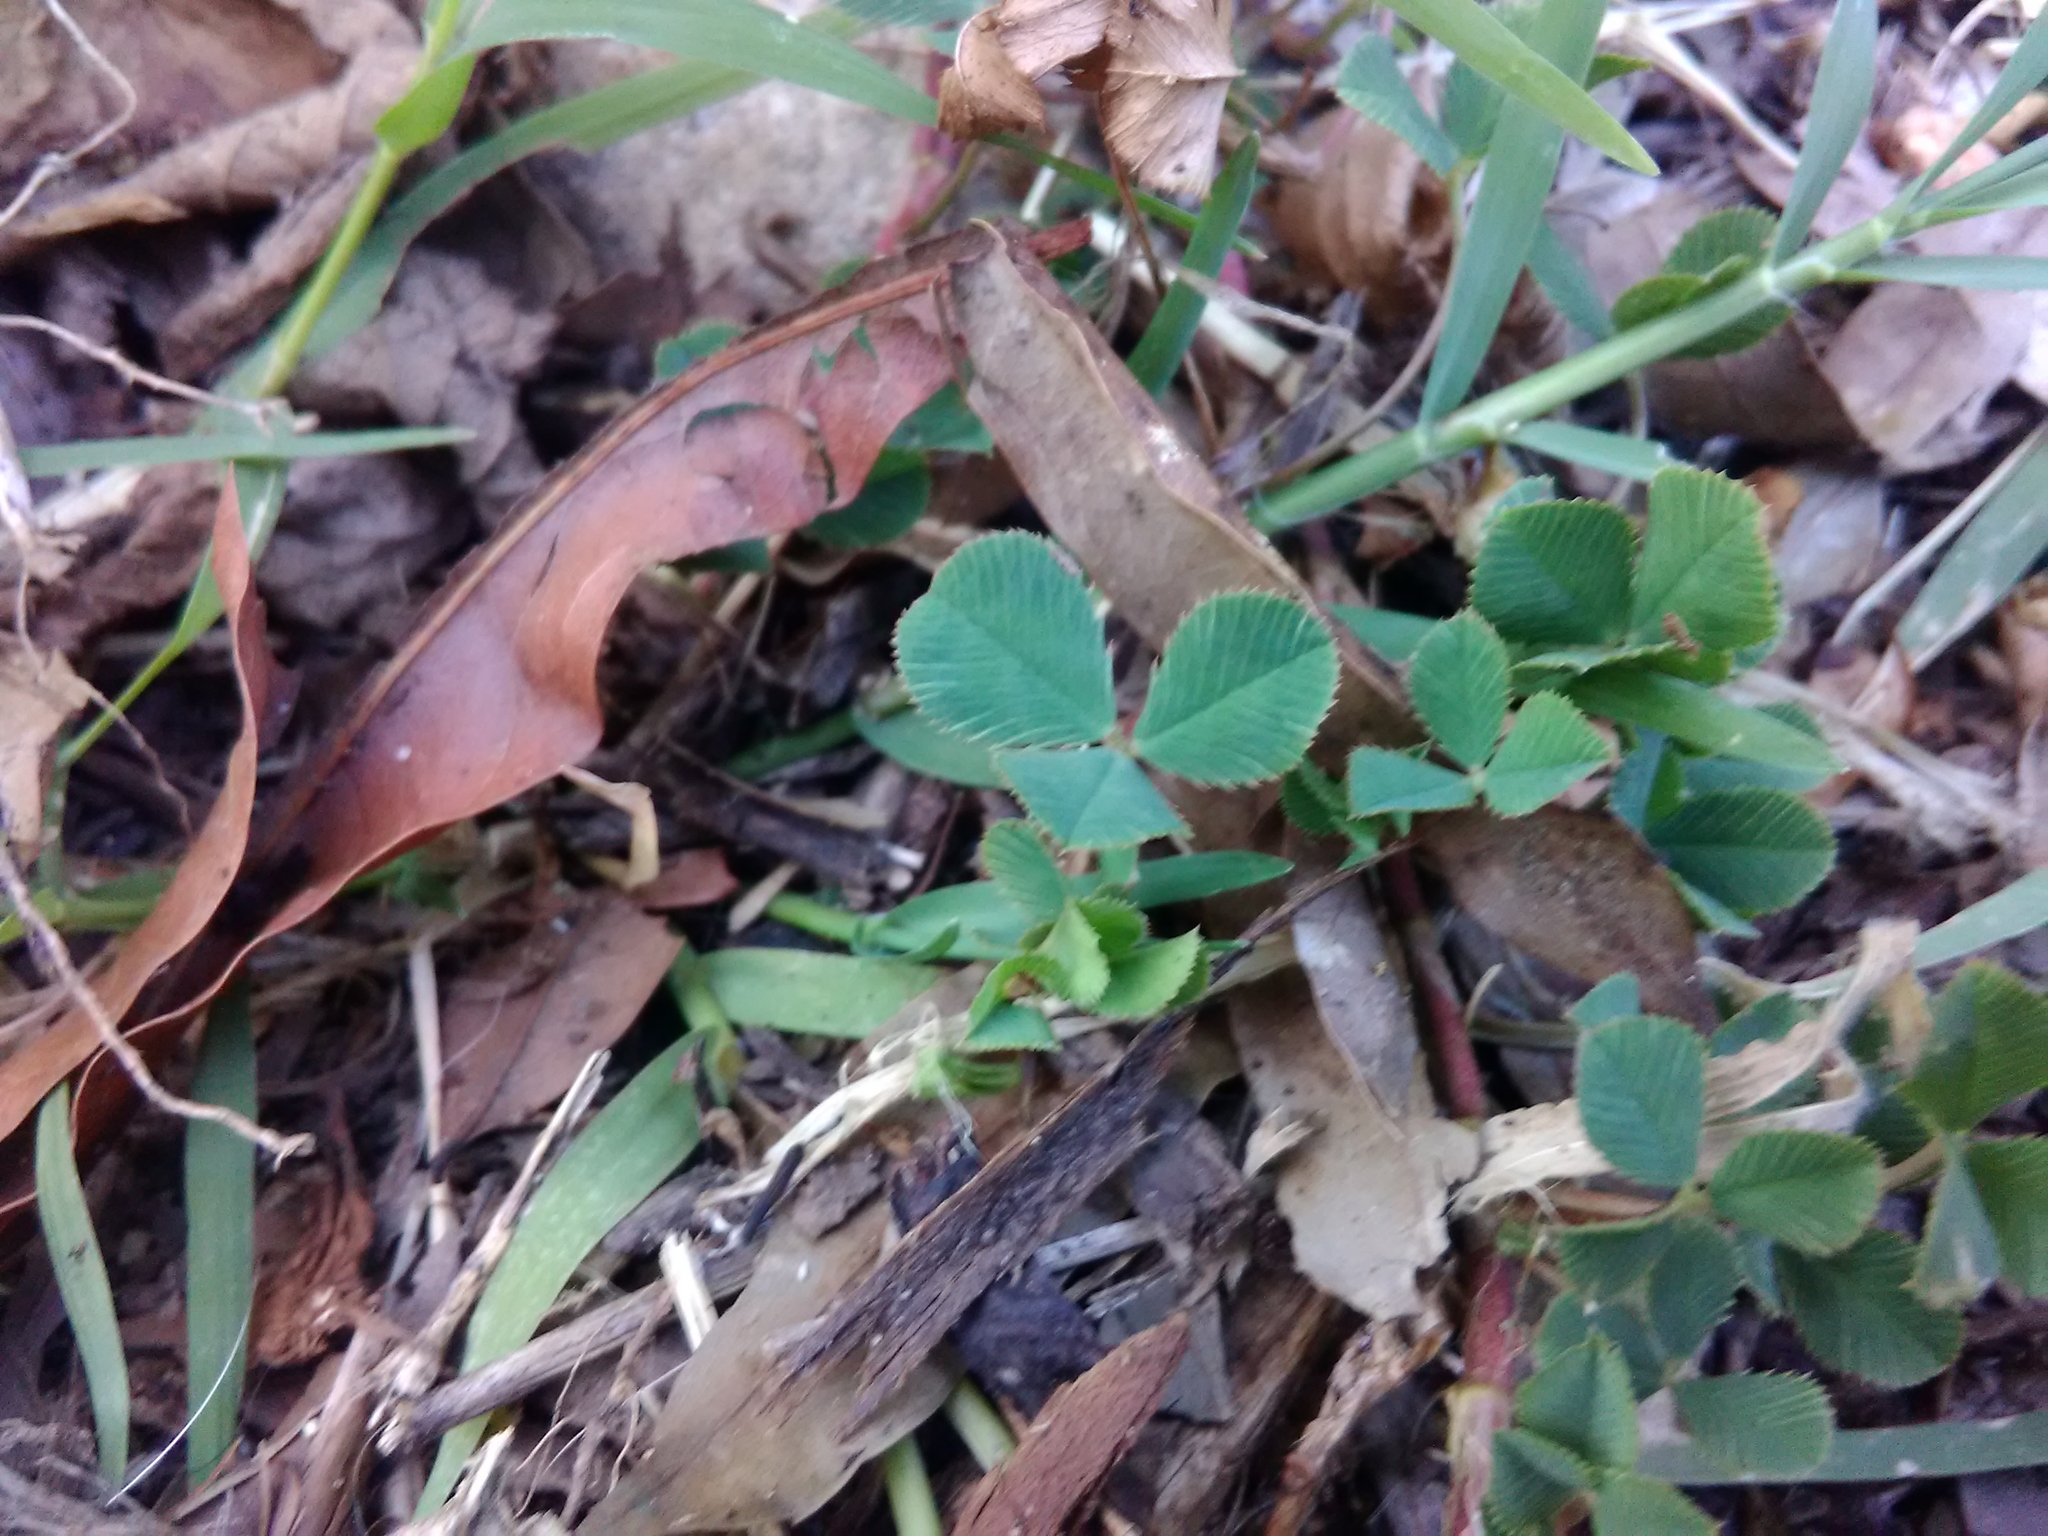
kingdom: Plantae
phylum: Tracheophyta
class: Magnoliopsida
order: Fabales
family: Fabaceae
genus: Trifolium
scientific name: Trifolium repens
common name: White clover
